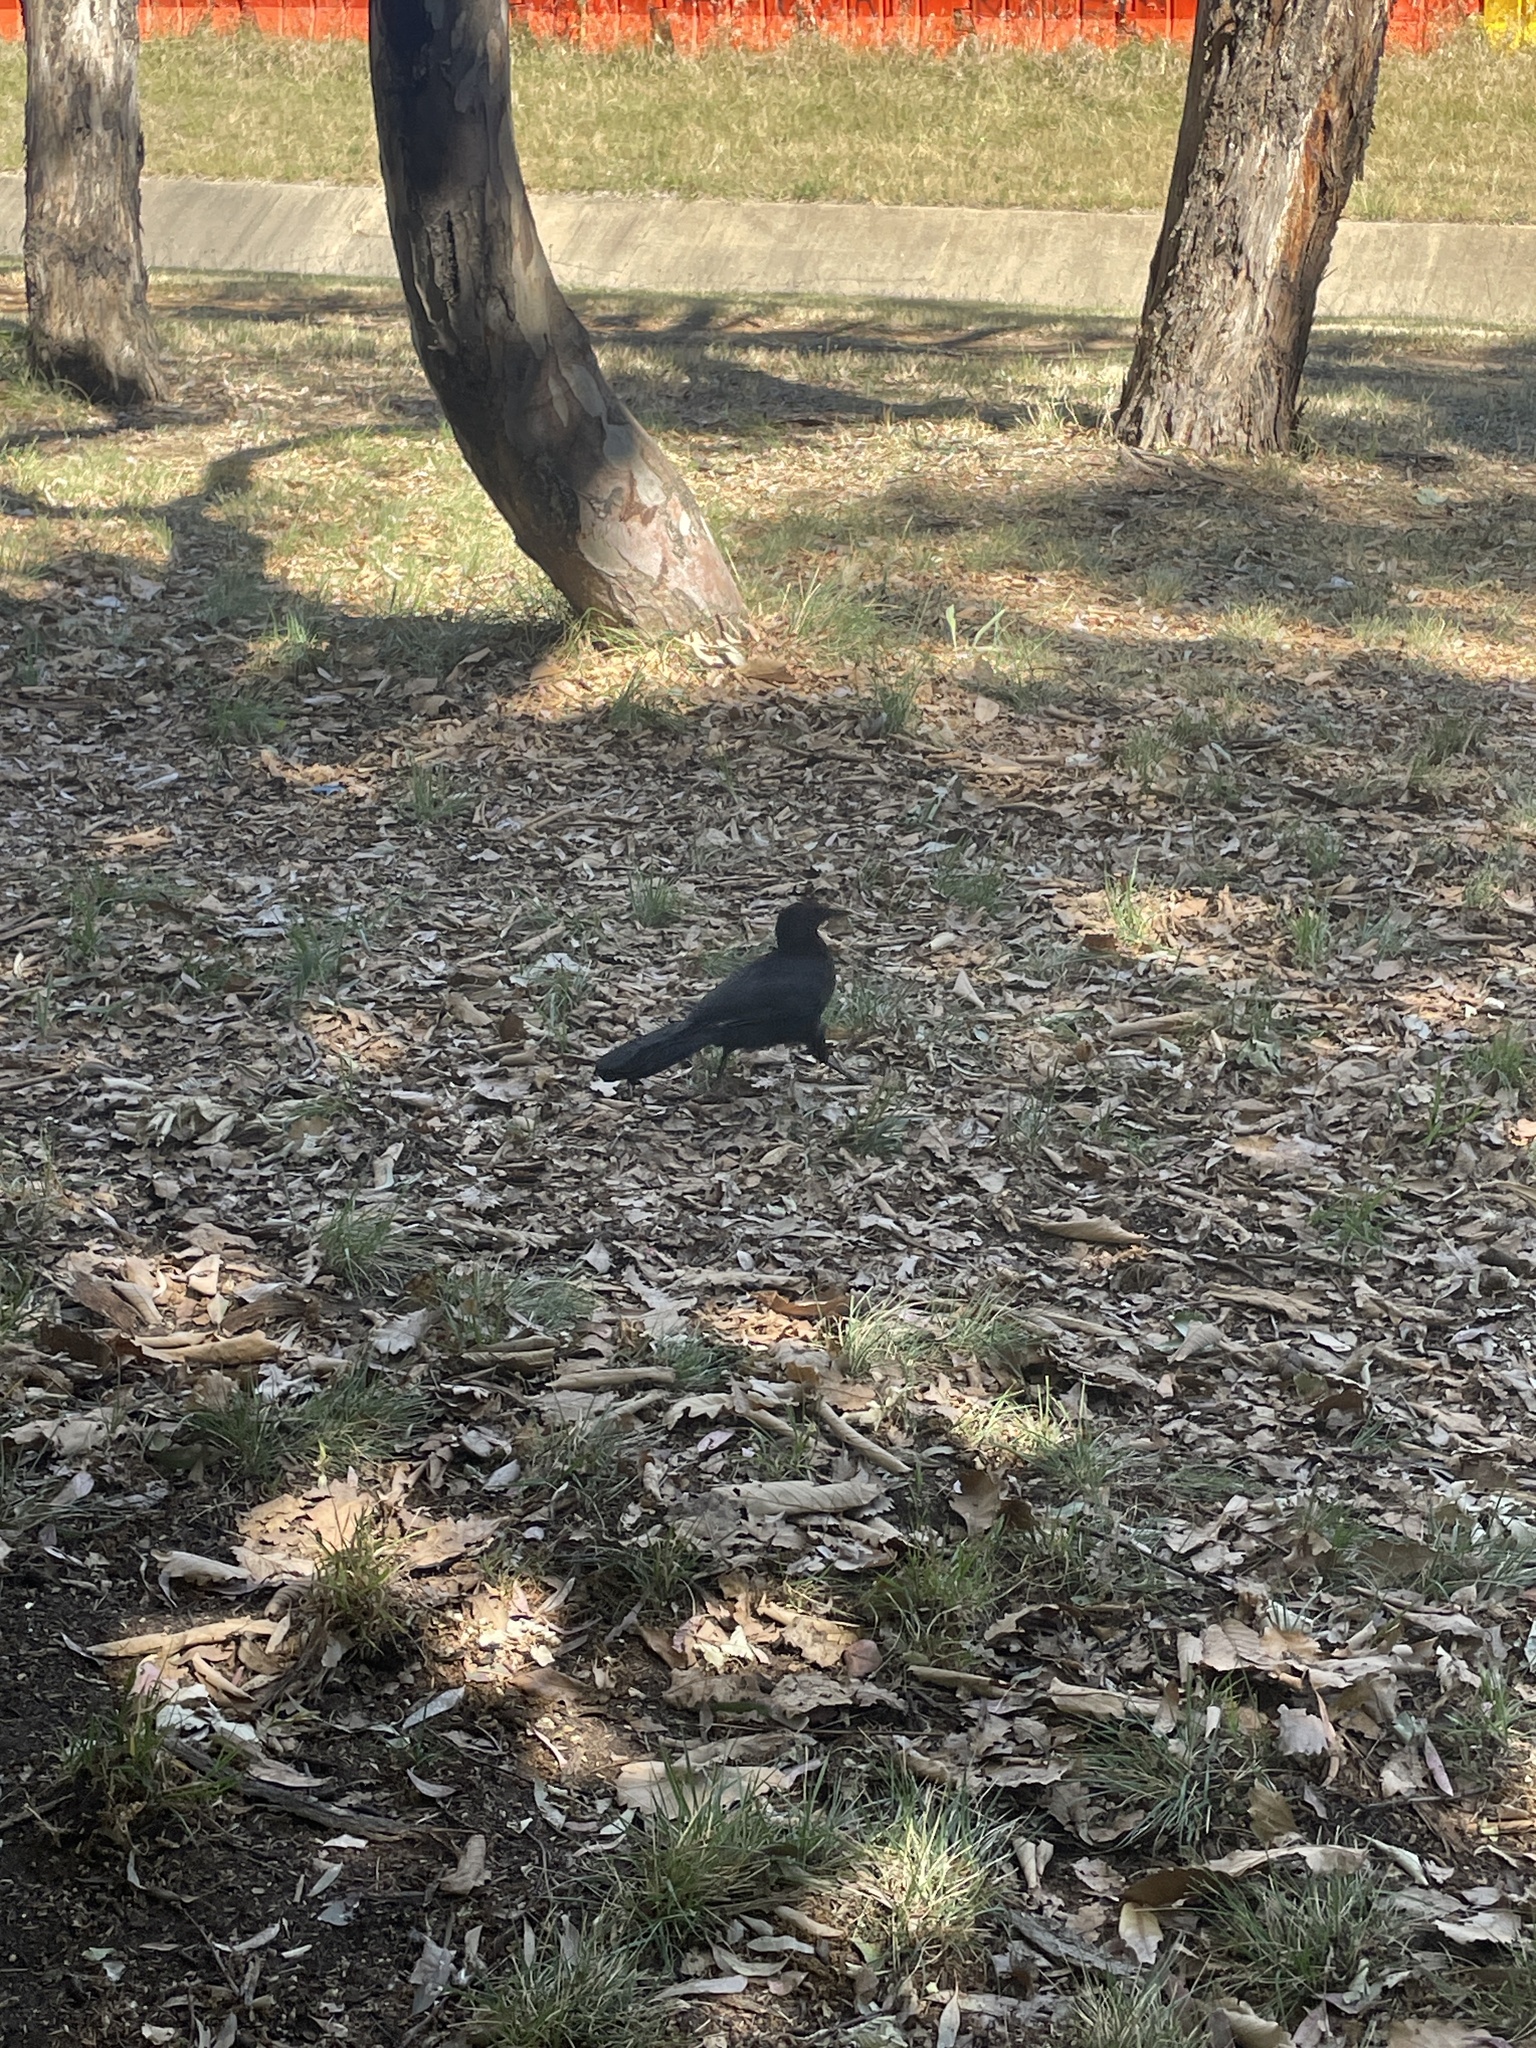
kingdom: Animalia
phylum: Chordata
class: Aves
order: Passeriformes
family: Corcoracidae
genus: Corcorax
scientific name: Corcorax melanoramphos
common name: White-winged chough
